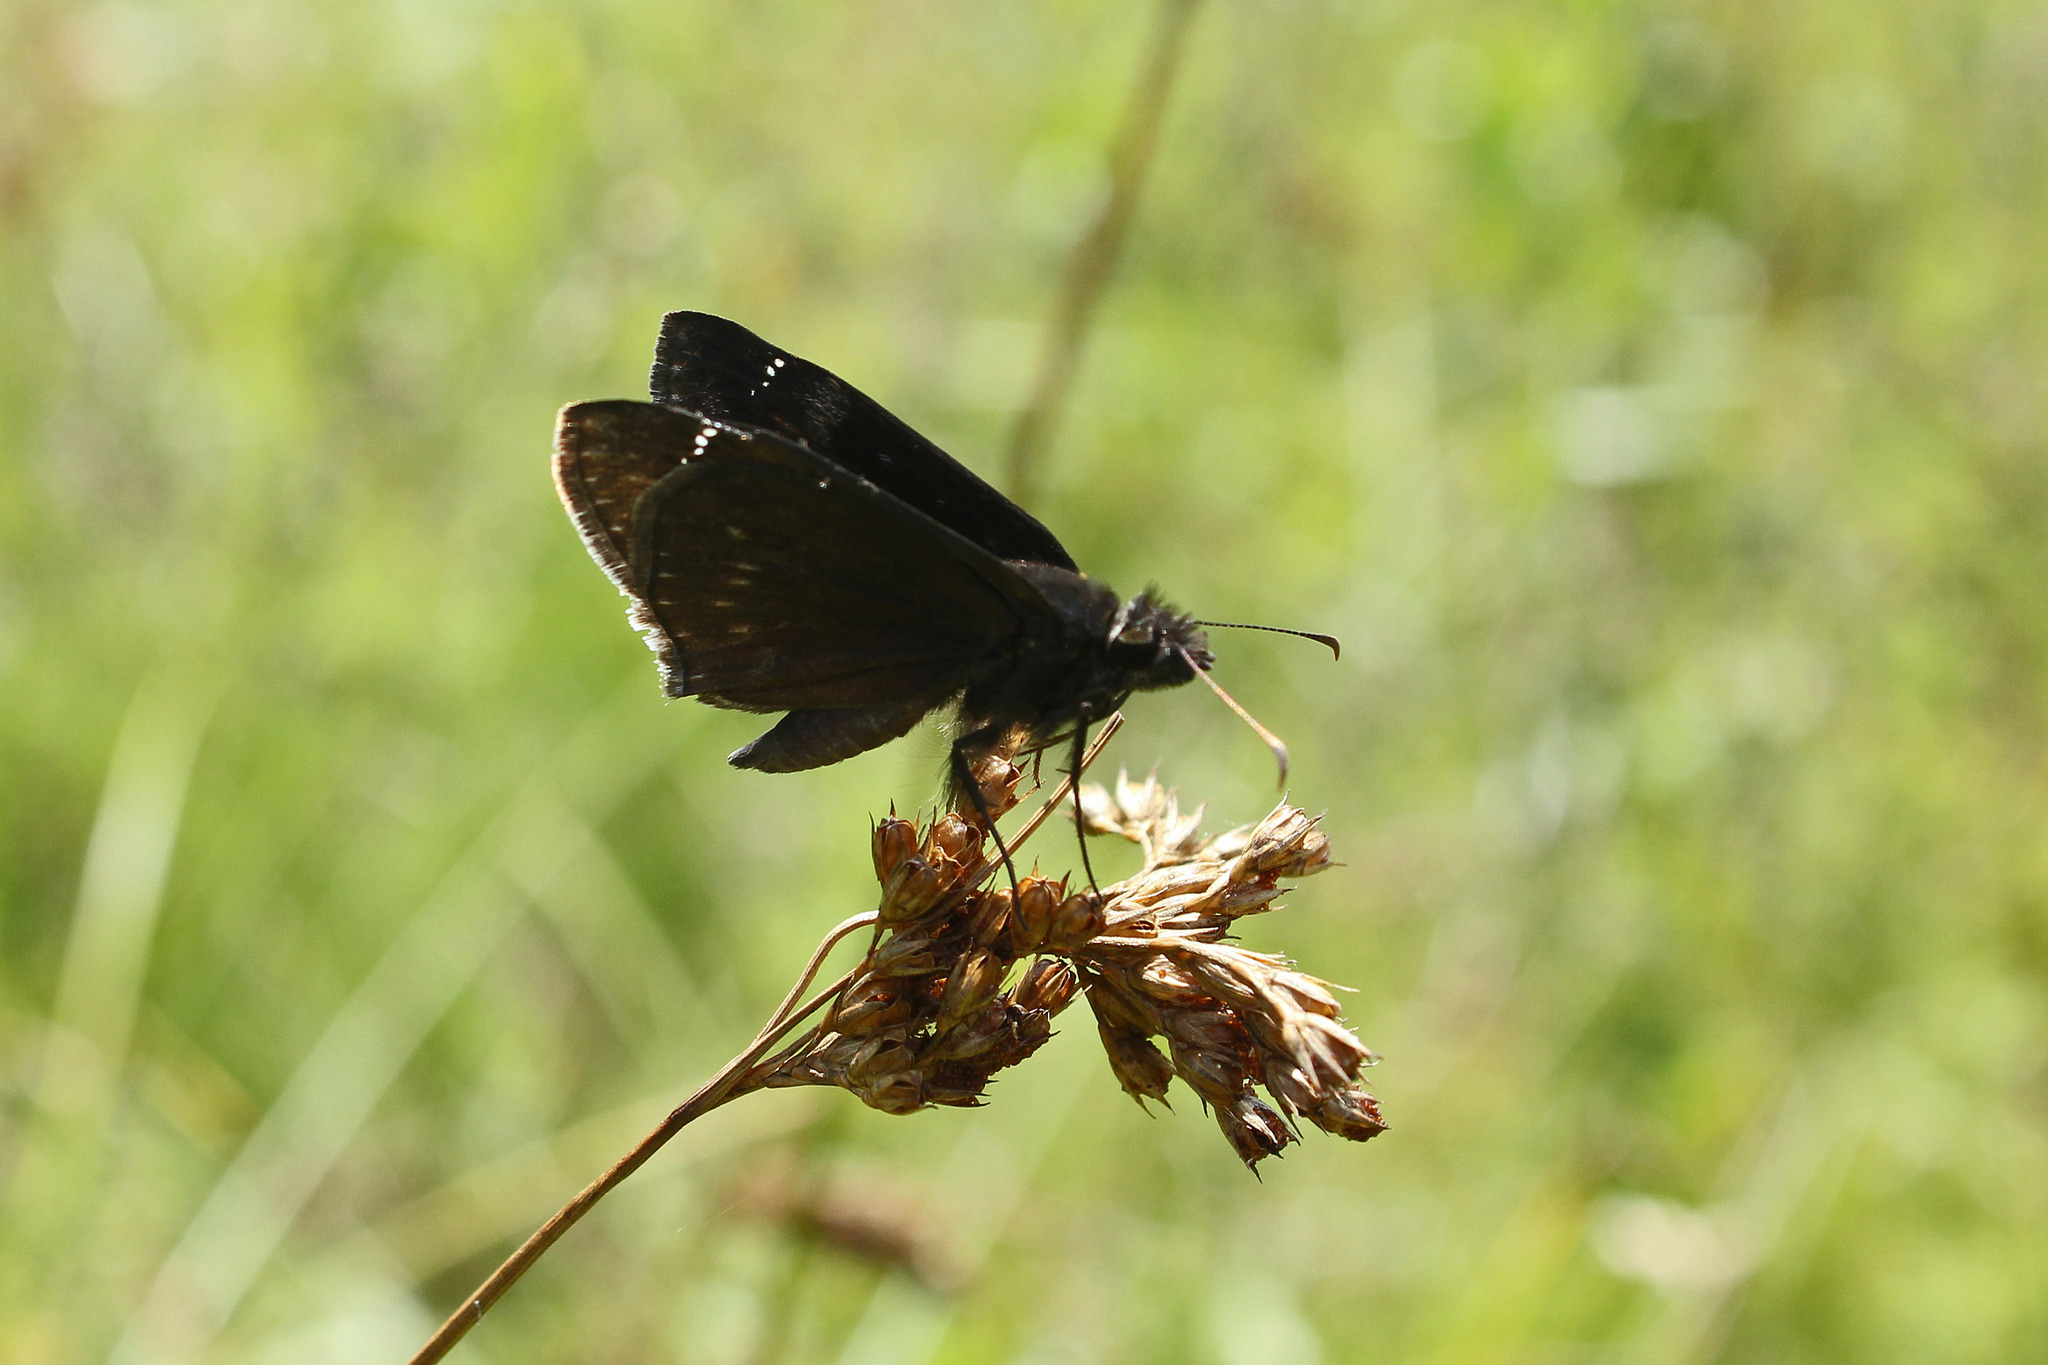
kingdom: Animalia
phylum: Arthropoda
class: Insecta
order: Lepidoptera
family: Hesperiidae
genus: Erynnis
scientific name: Erynnis zarucco
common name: Zarucco duskywing
